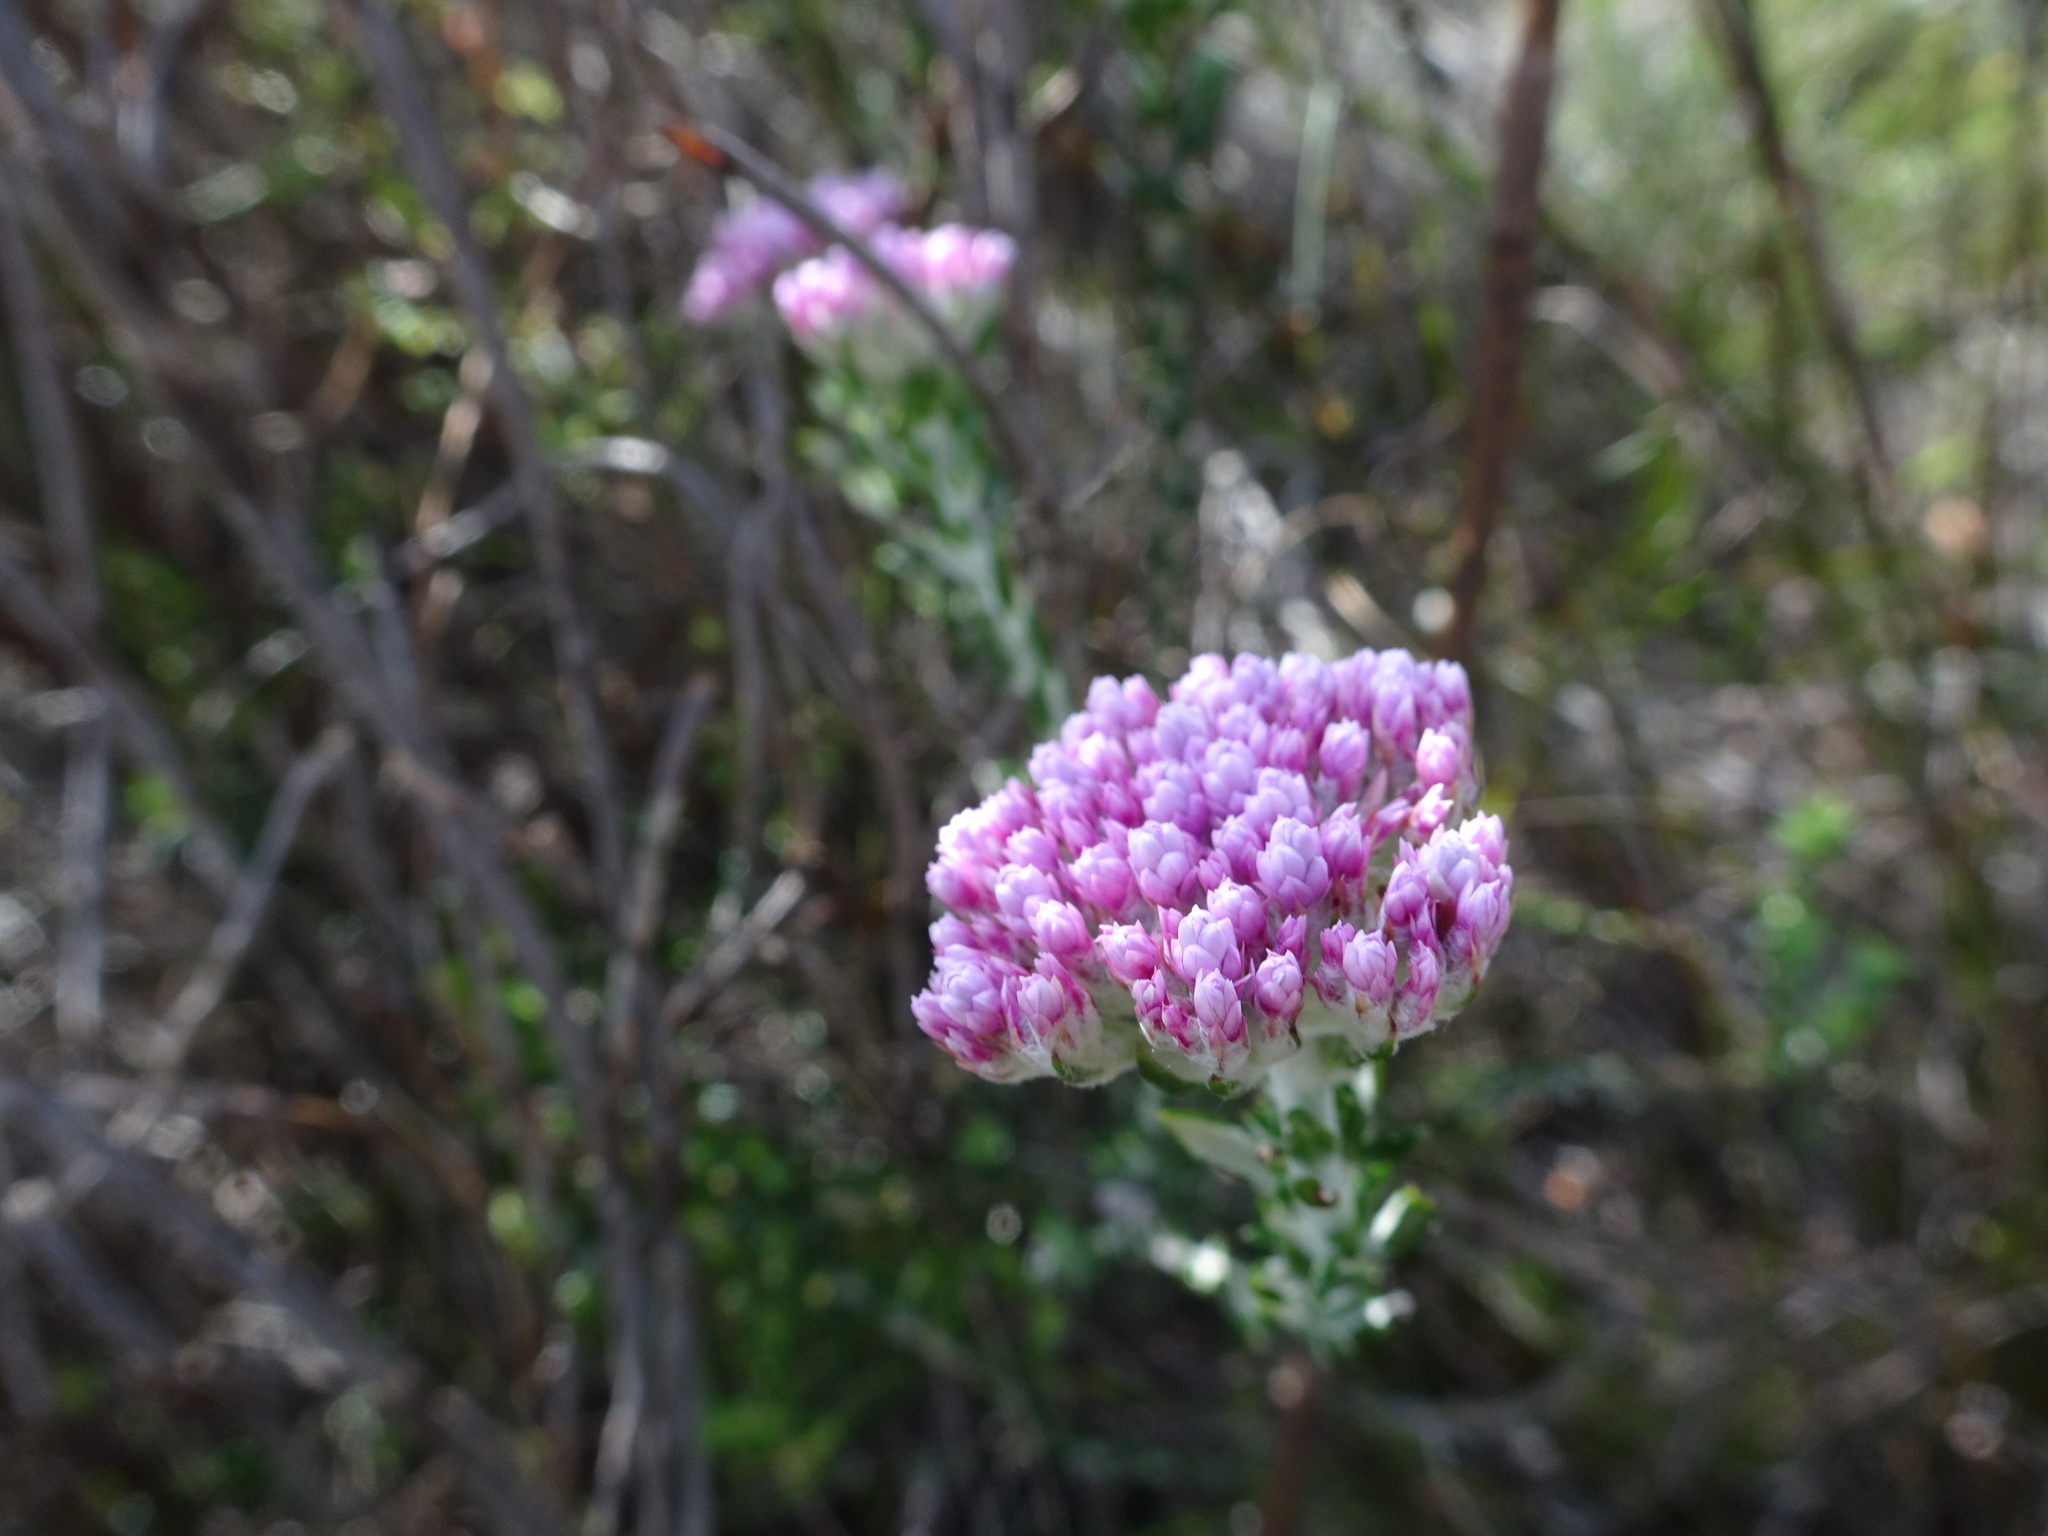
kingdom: Plantae
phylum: Tracheophyta
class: Magnoliopsida
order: Asterales
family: Asteraceae
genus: Metalasia
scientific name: Metalasia cymbifolia
